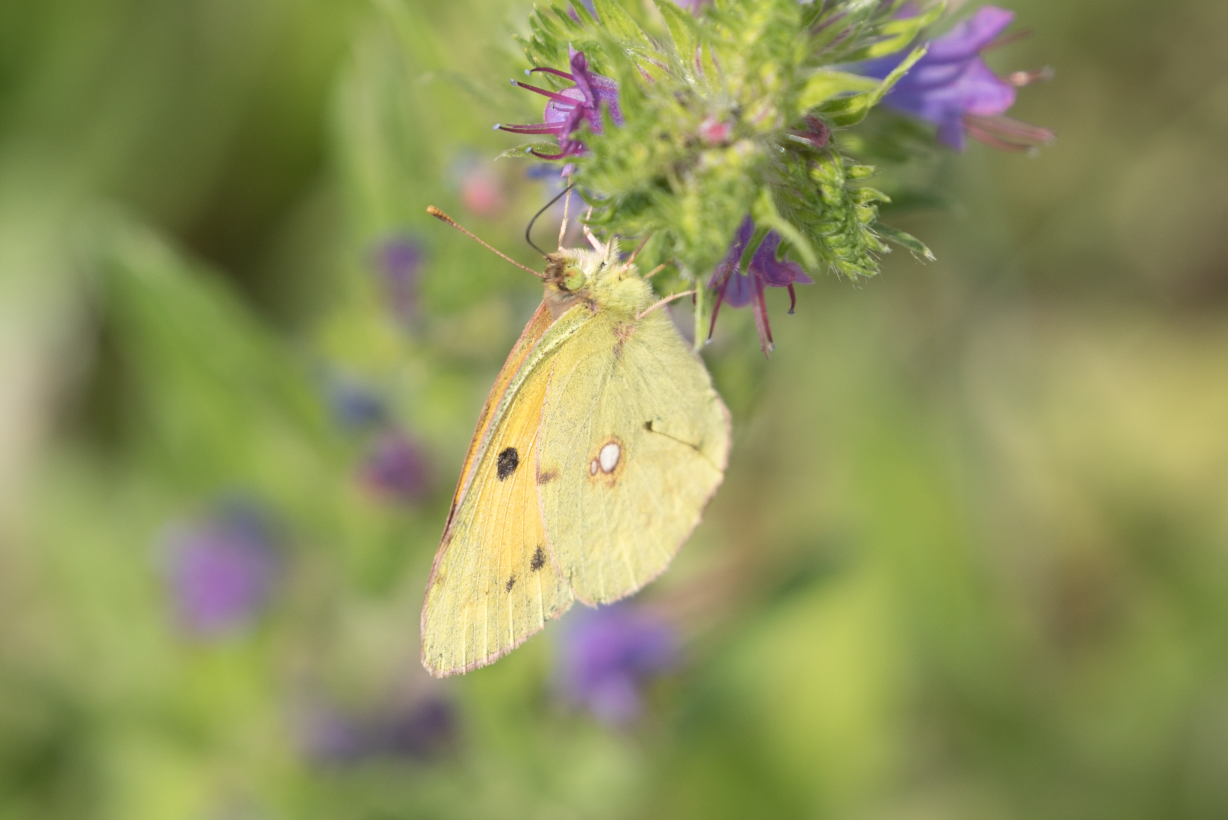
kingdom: Animalia
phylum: Arthropoda
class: Insecta
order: Lepidoptera
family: Pieridae
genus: Colias
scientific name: Colias croceus
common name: Clouded yellow
